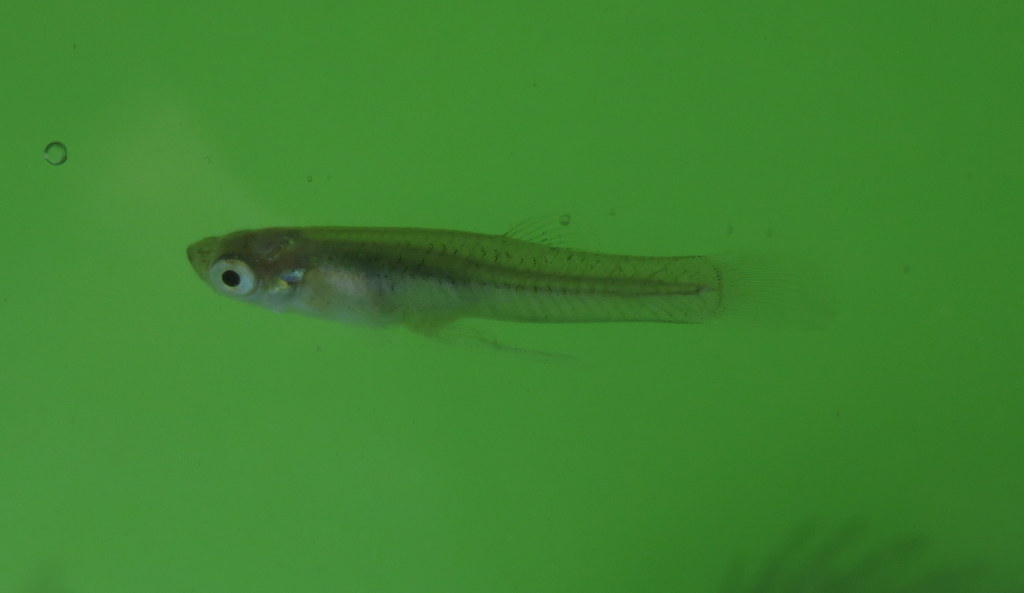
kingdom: Animalia
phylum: Chordata
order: Cyprinodontiformes
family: Poeciliidae
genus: Gambusia
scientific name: Gambusia affinis
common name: Mosquitofish
